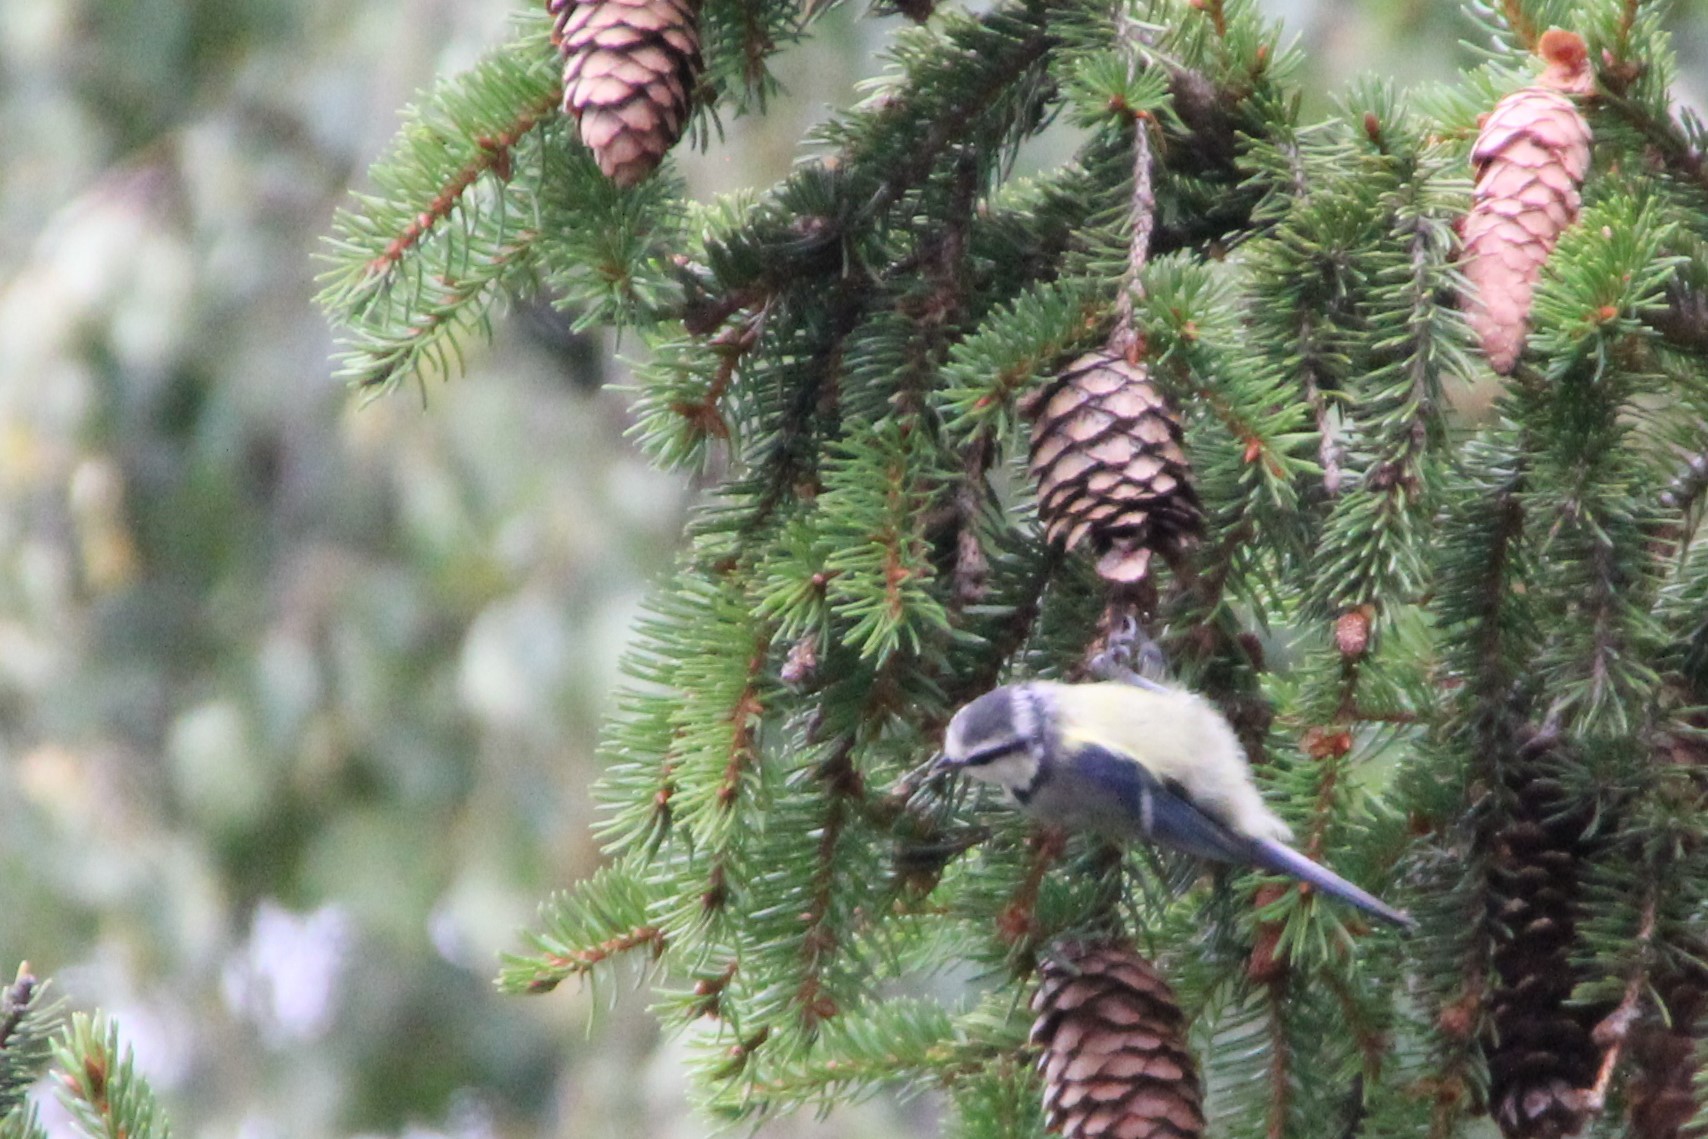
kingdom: Animalia
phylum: Chordata
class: Aves
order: Passeriformes
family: Paridae
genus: Cyanistes
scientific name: Cyanistes caeruleus
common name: Eurasian blue tit
